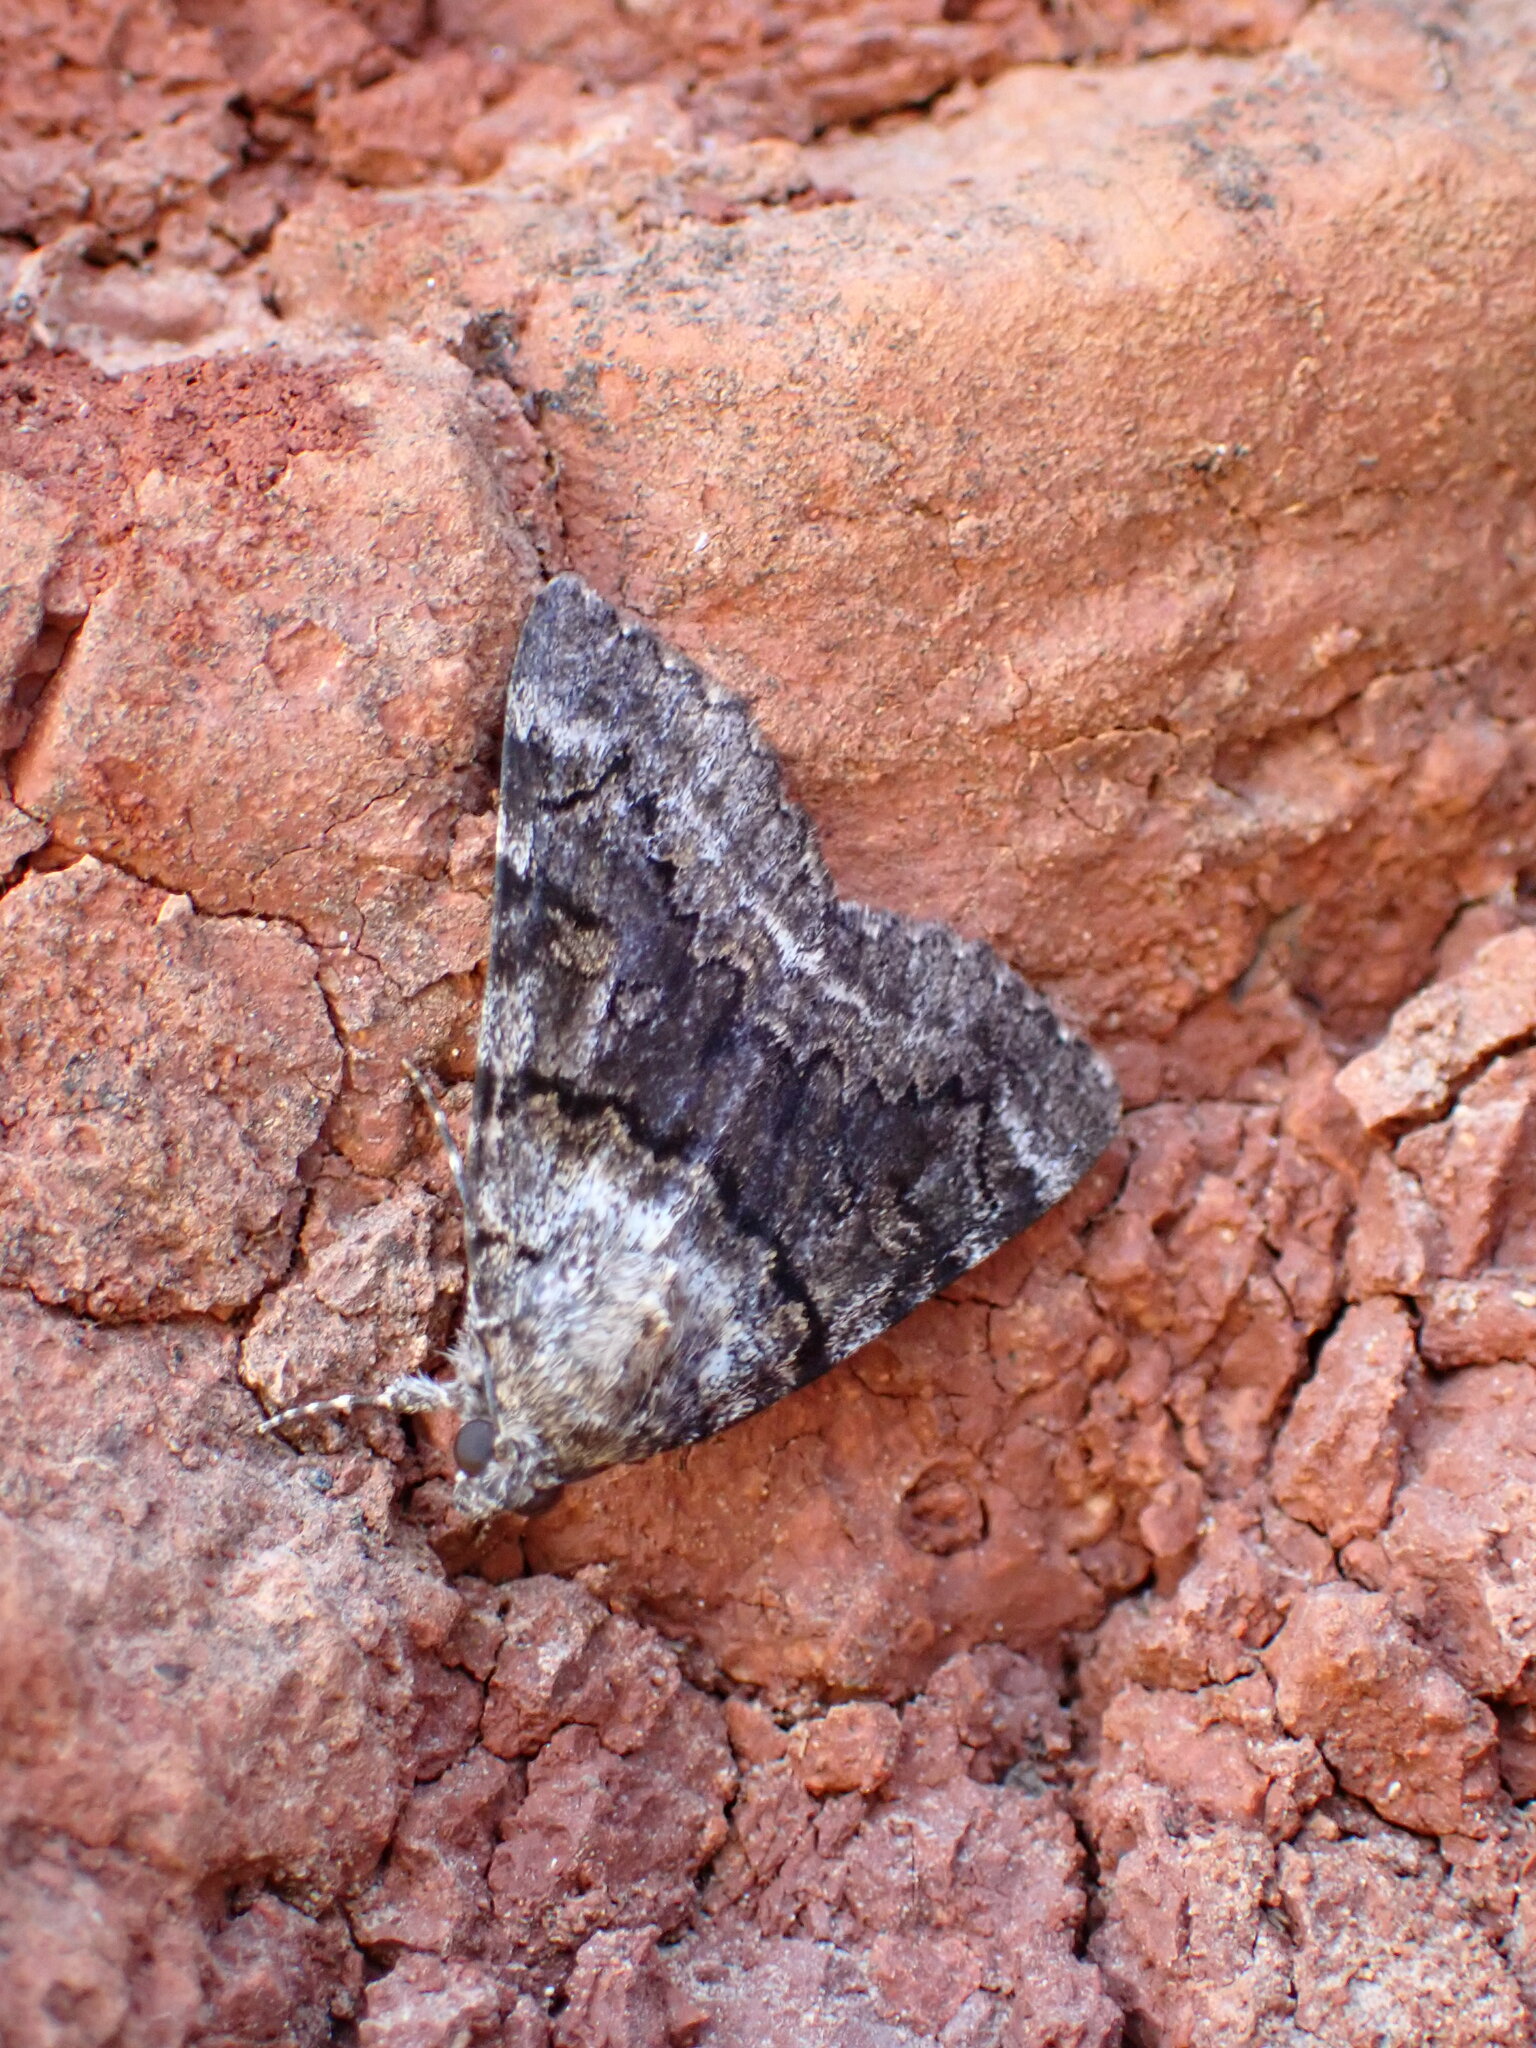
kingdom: Animalia
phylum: Arthropoda
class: Insecta
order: Lepidoptera
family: Erebidae
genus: Catocala
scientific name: Catocala nymphagoga
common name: Oak yellow underwing
